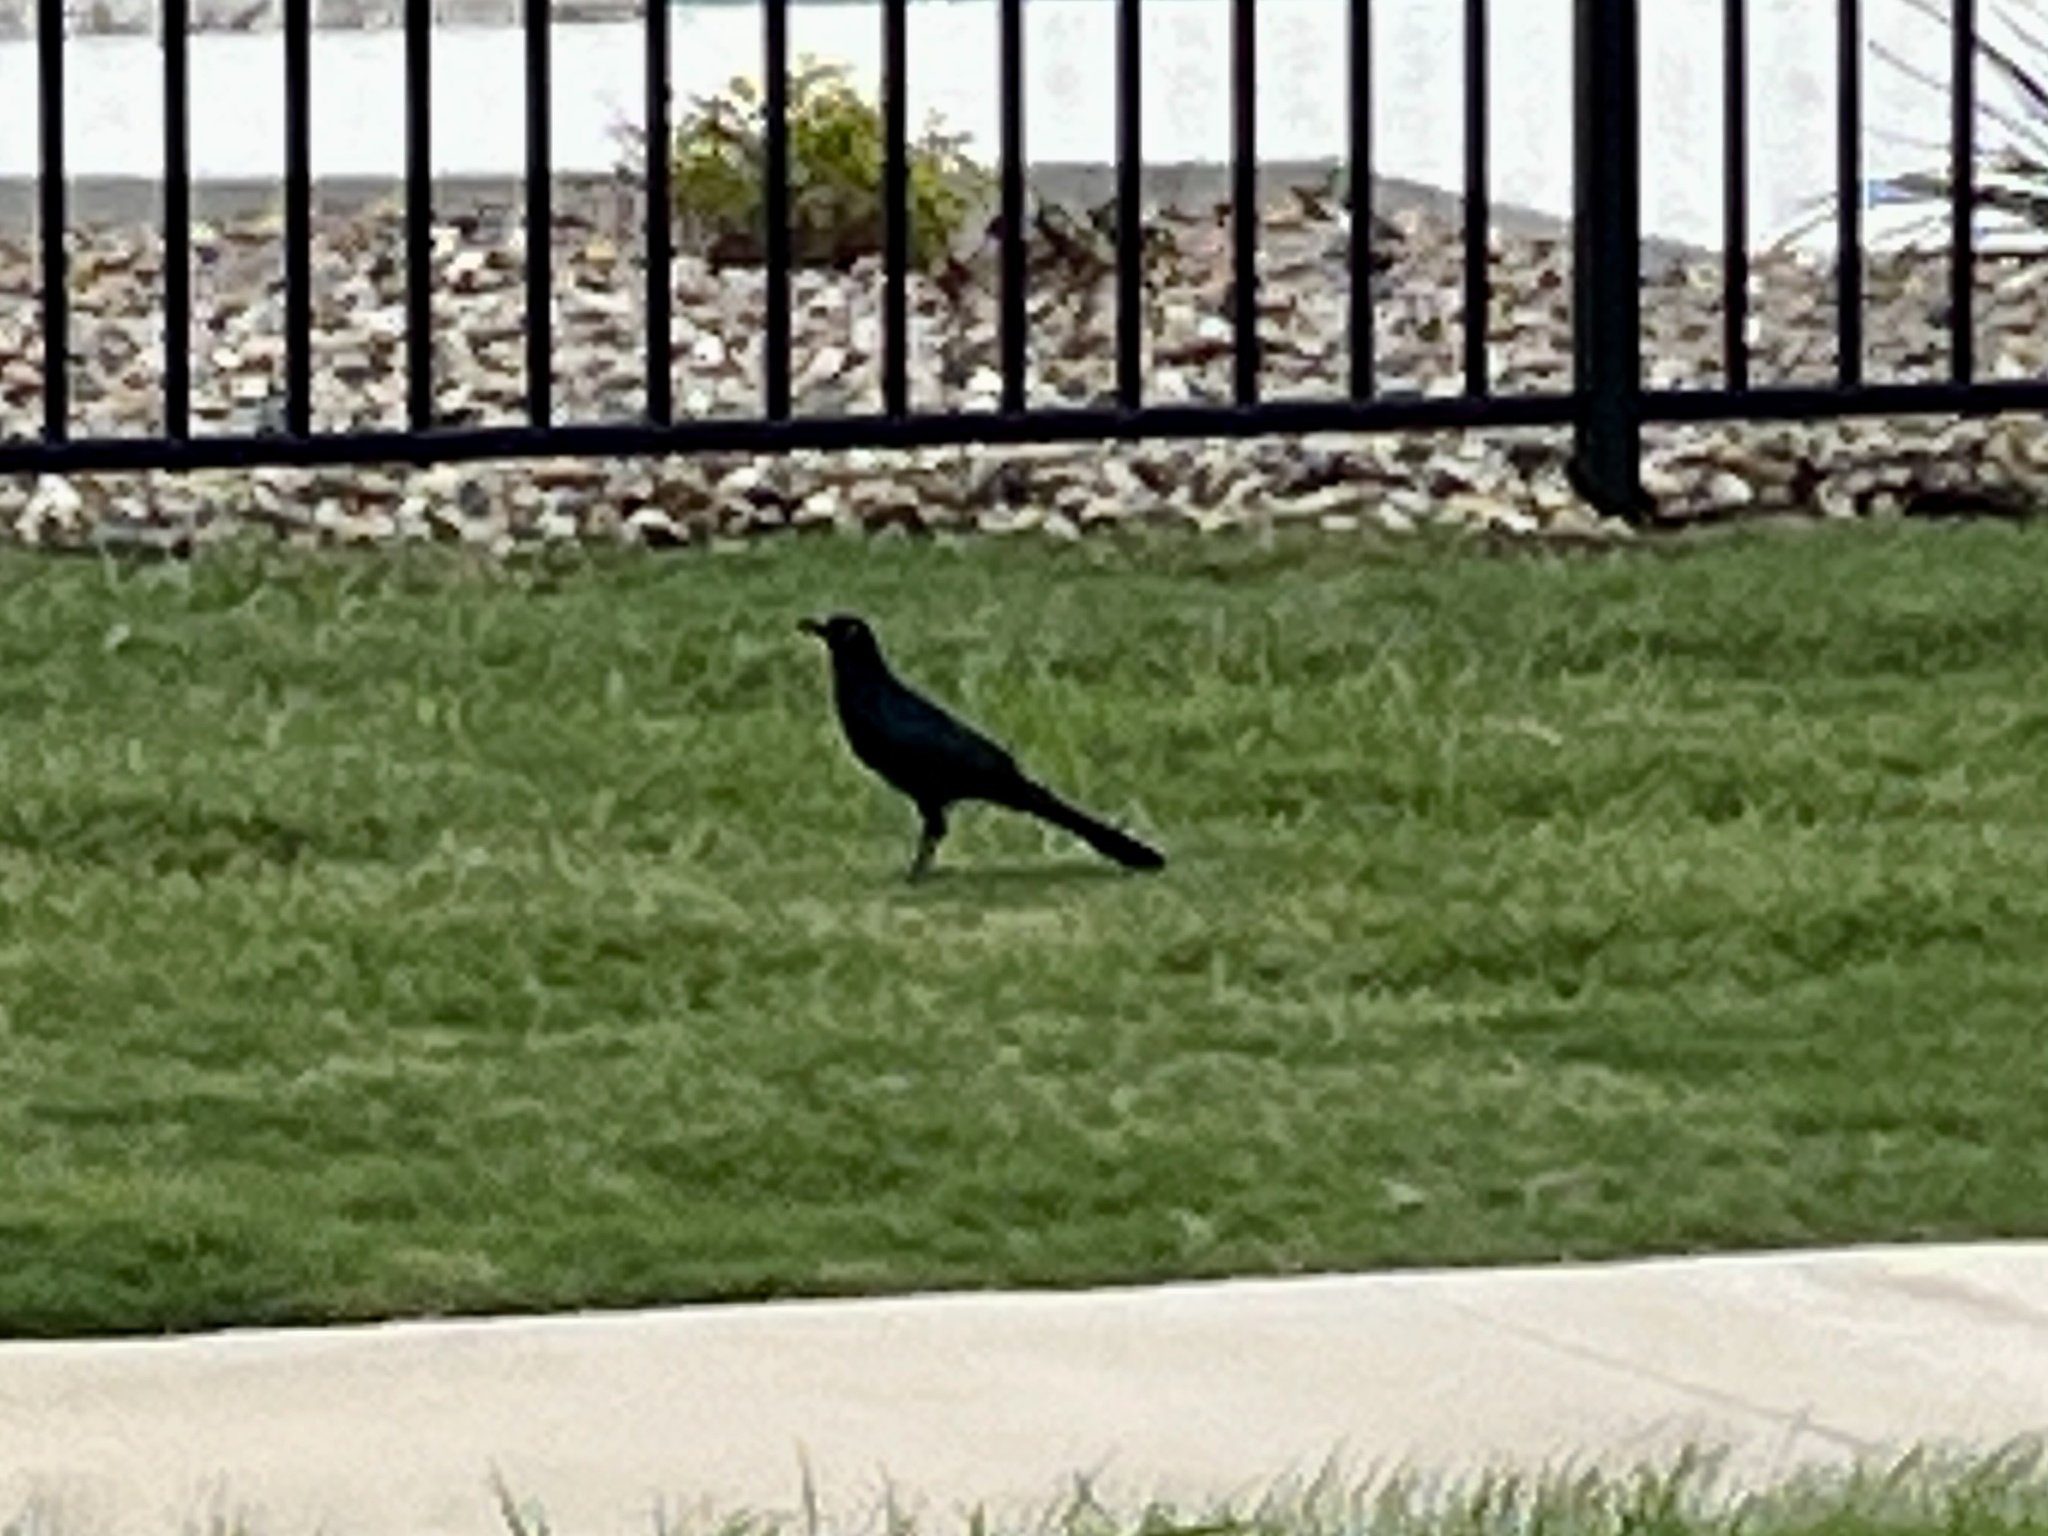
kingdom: Animalia
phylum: Chordata
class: Aves
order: Passeriformes
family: Icteridae
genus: Quiscalus
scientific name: Quiscalus mexicanus
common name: Great-tailed grackle
